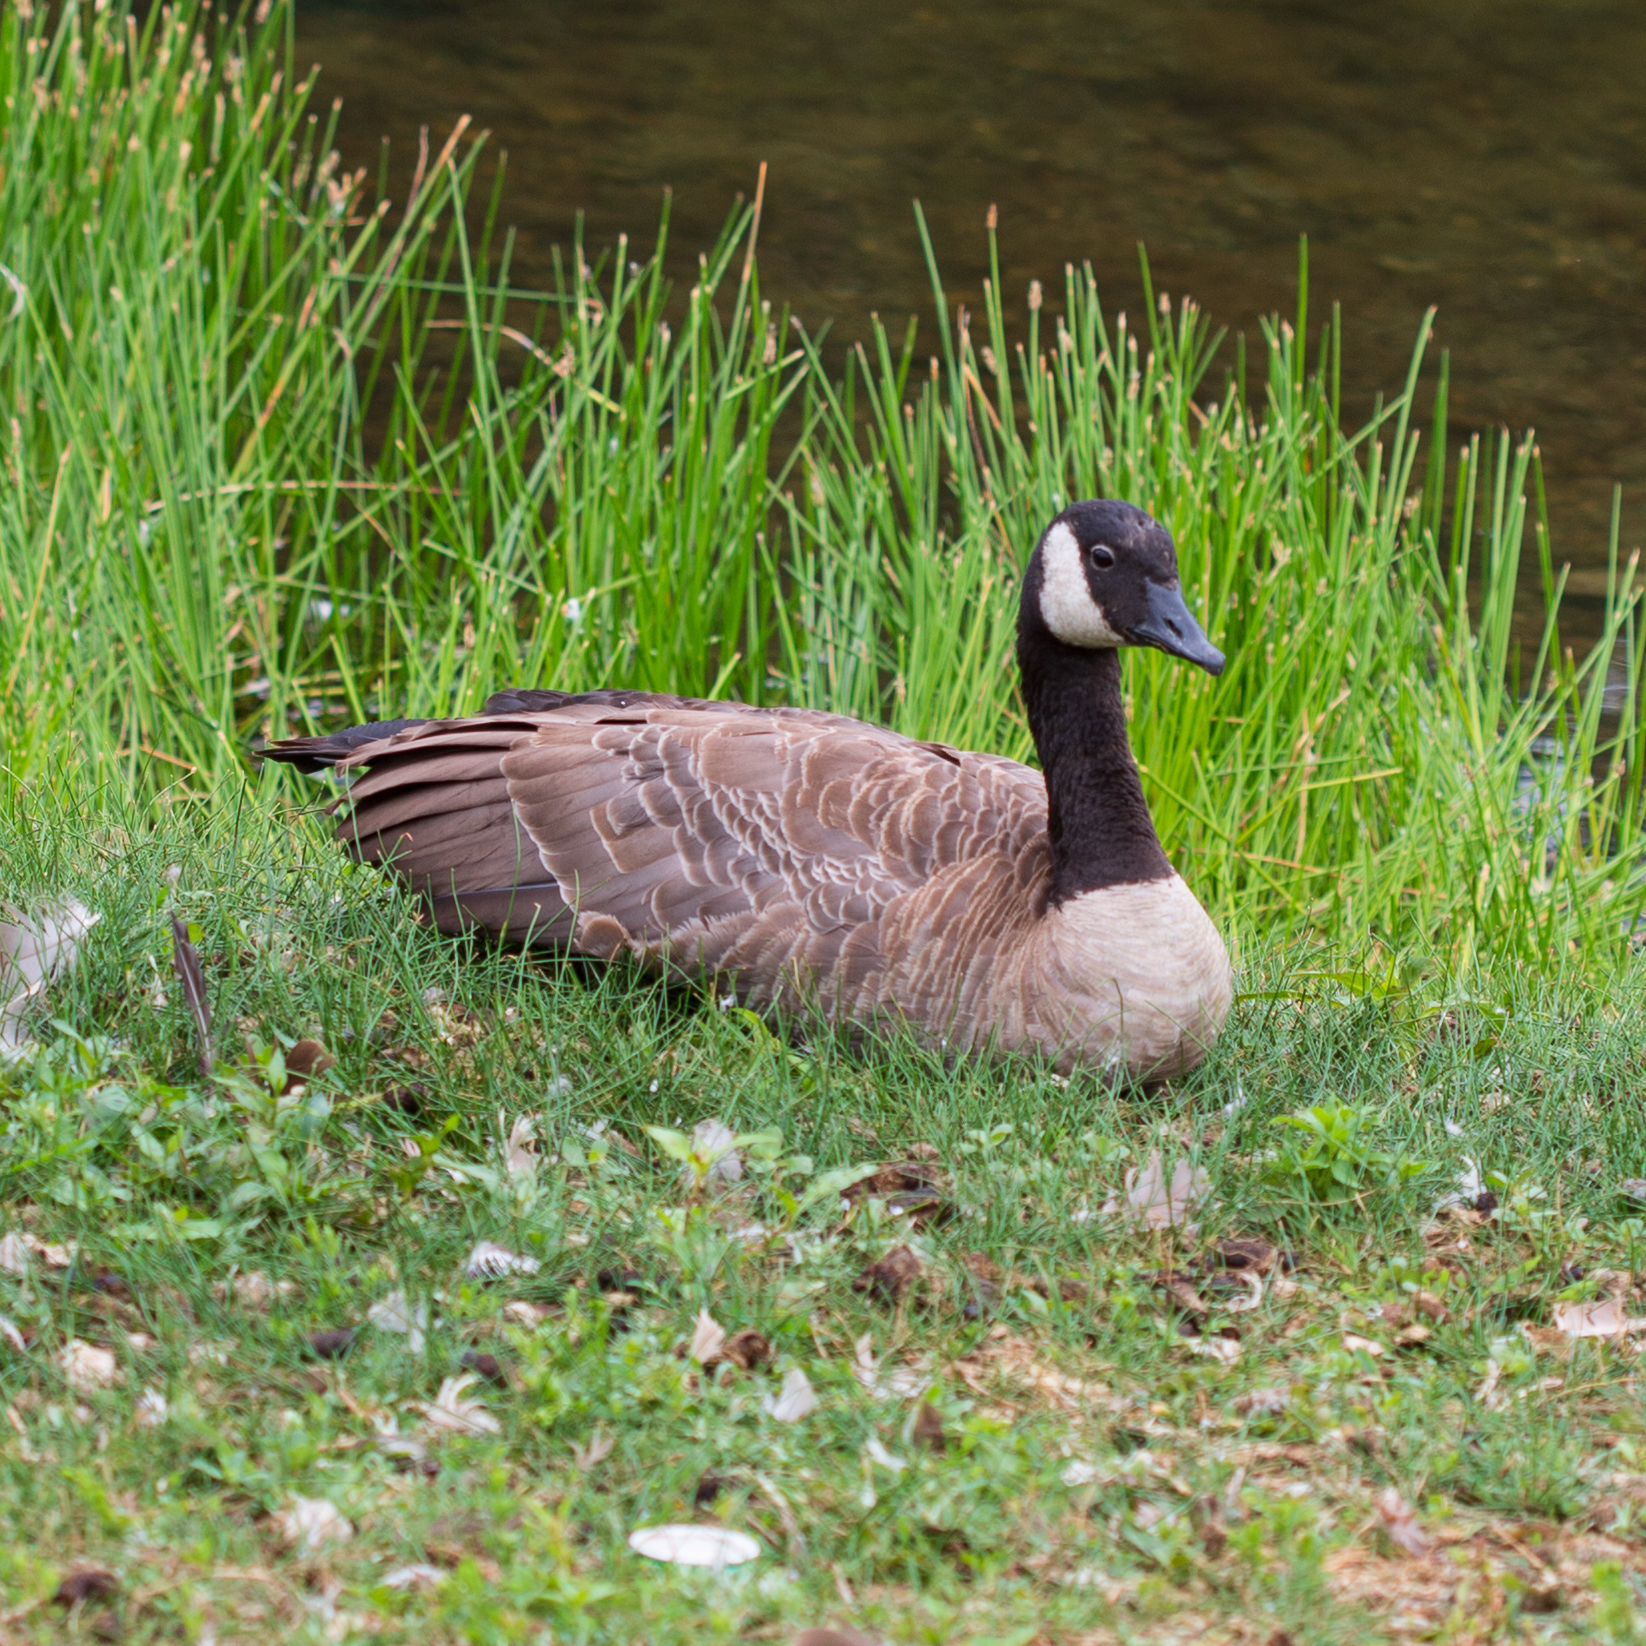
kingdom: Animalia
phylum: Chordata
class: Aves
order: Anseriformes
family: Anatidae
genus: Branta
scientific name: Branta canadensis
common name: Canada goose
